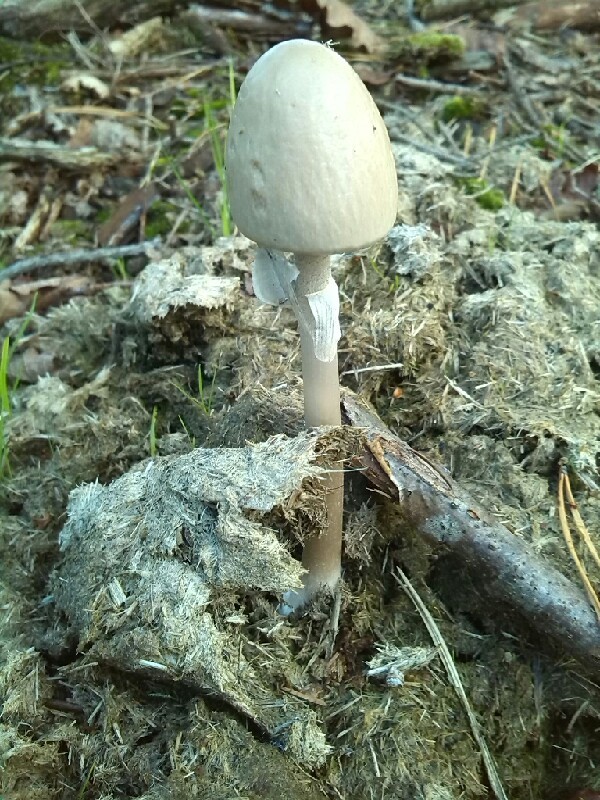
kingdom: Fungi
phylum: Basidiomycota
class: Agaricomycetes
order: Agaricales
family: Bolbitiaceae
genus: Panaeolus
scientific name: Panaeolus semiovatus
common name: Shiny mottlegill
